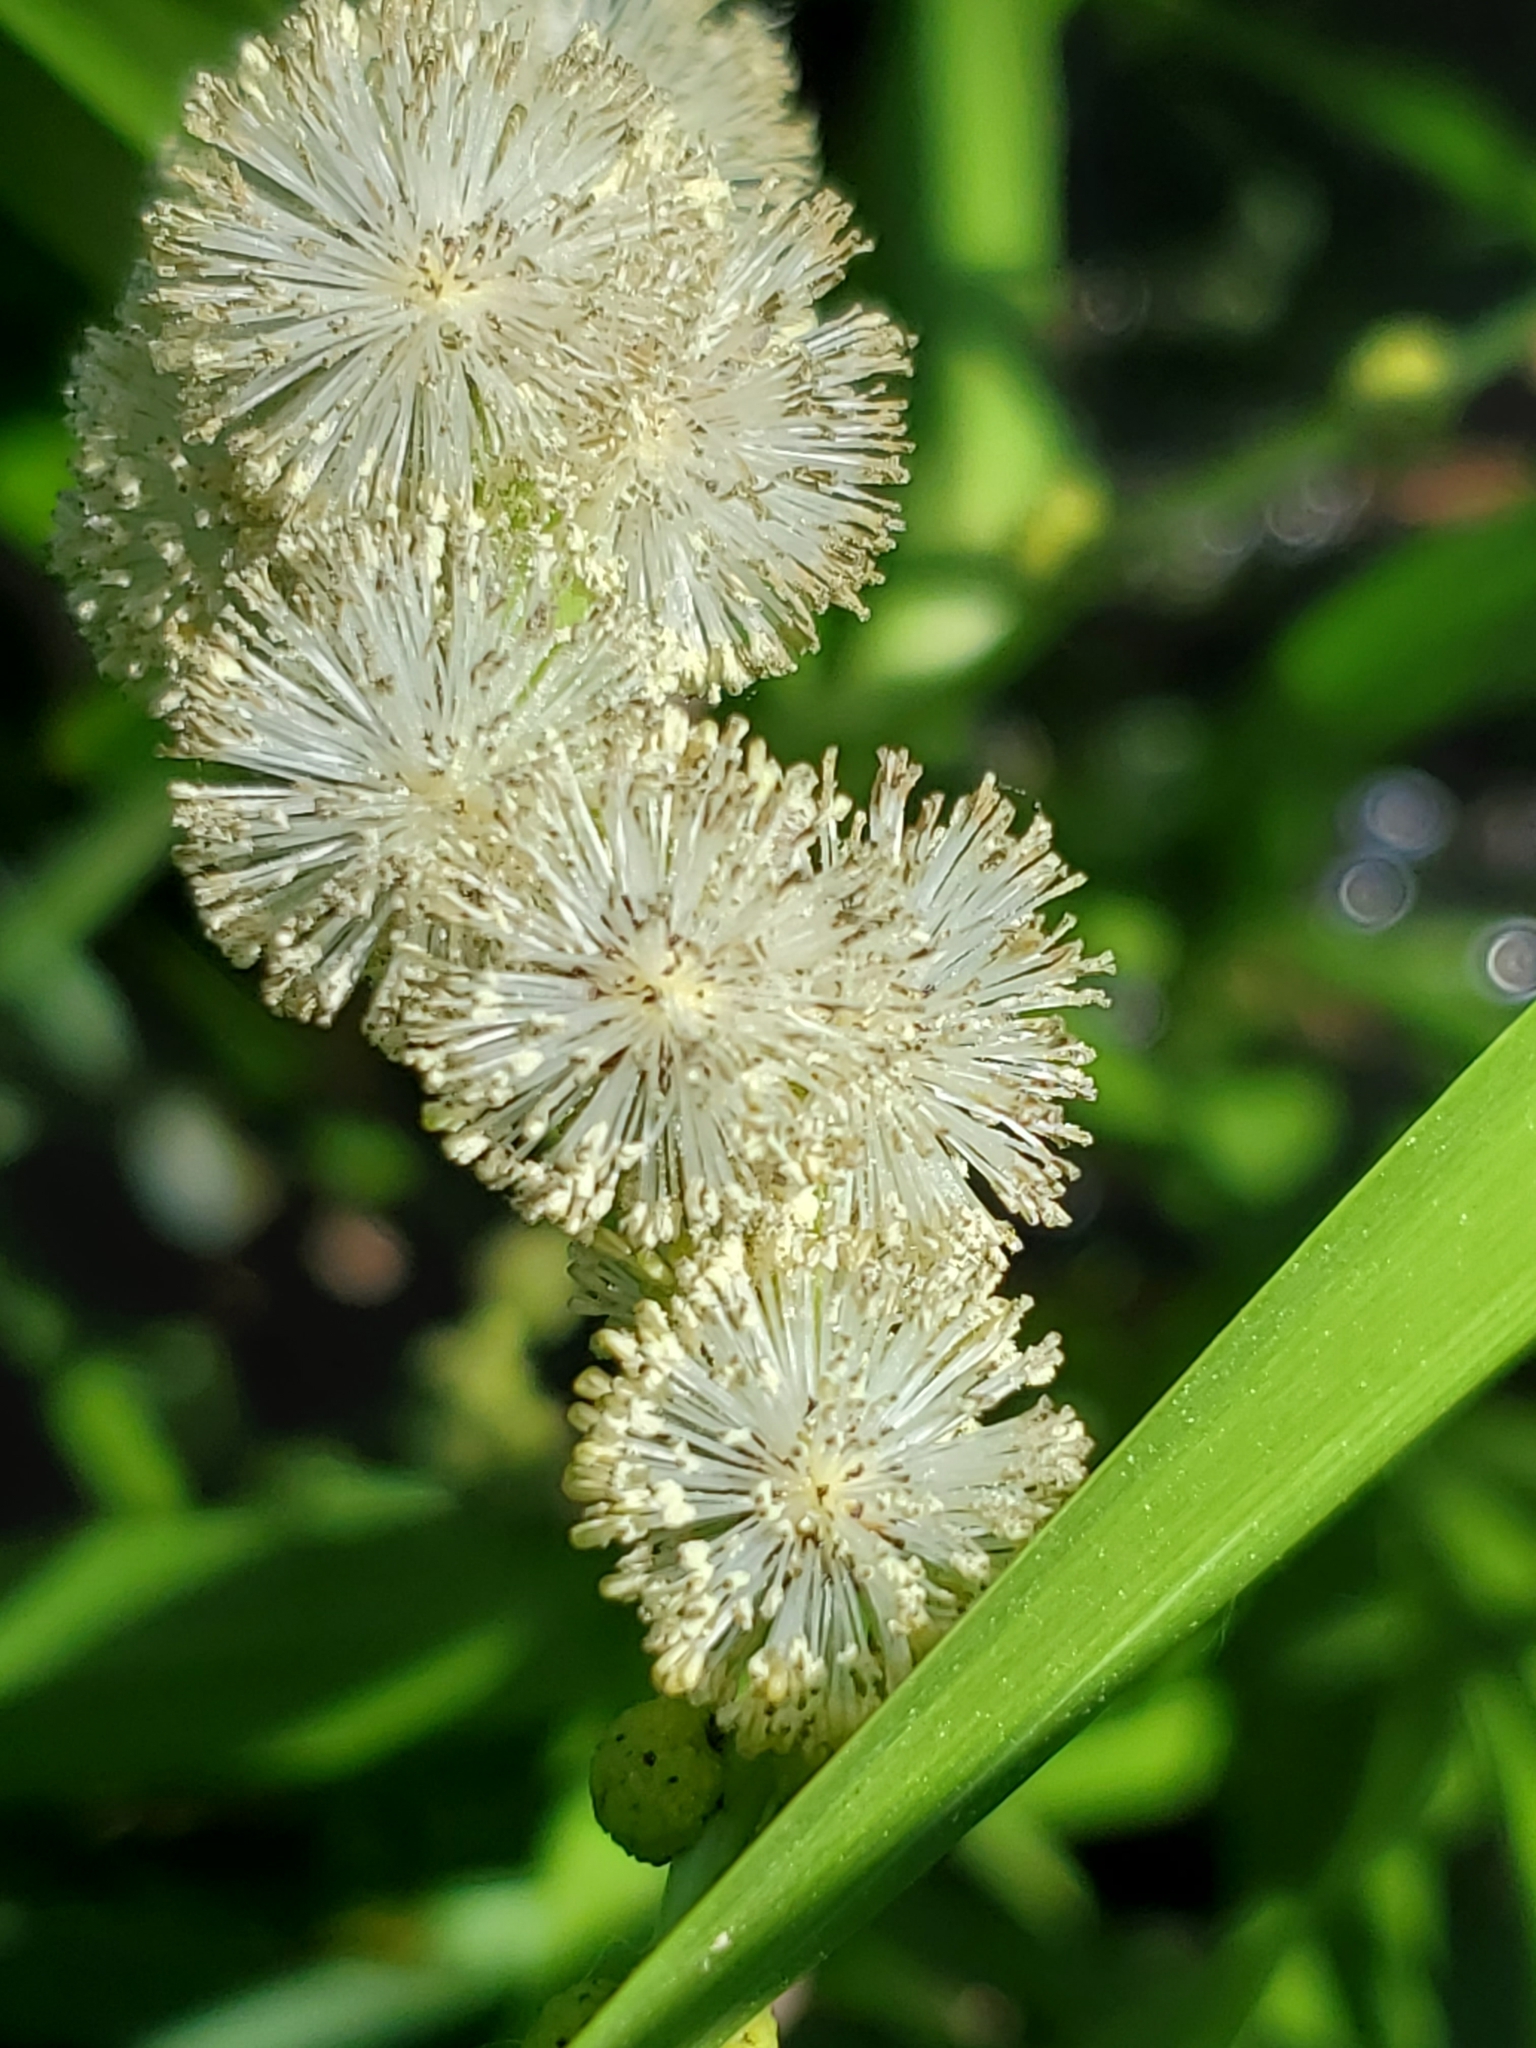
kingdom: Plantae
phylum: Tracheophyta
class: Liliopsida
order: Poales
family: Typhaceae
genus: Sparganium
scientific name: Sparganium eurycarpum
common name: Broad-fruited burreed
